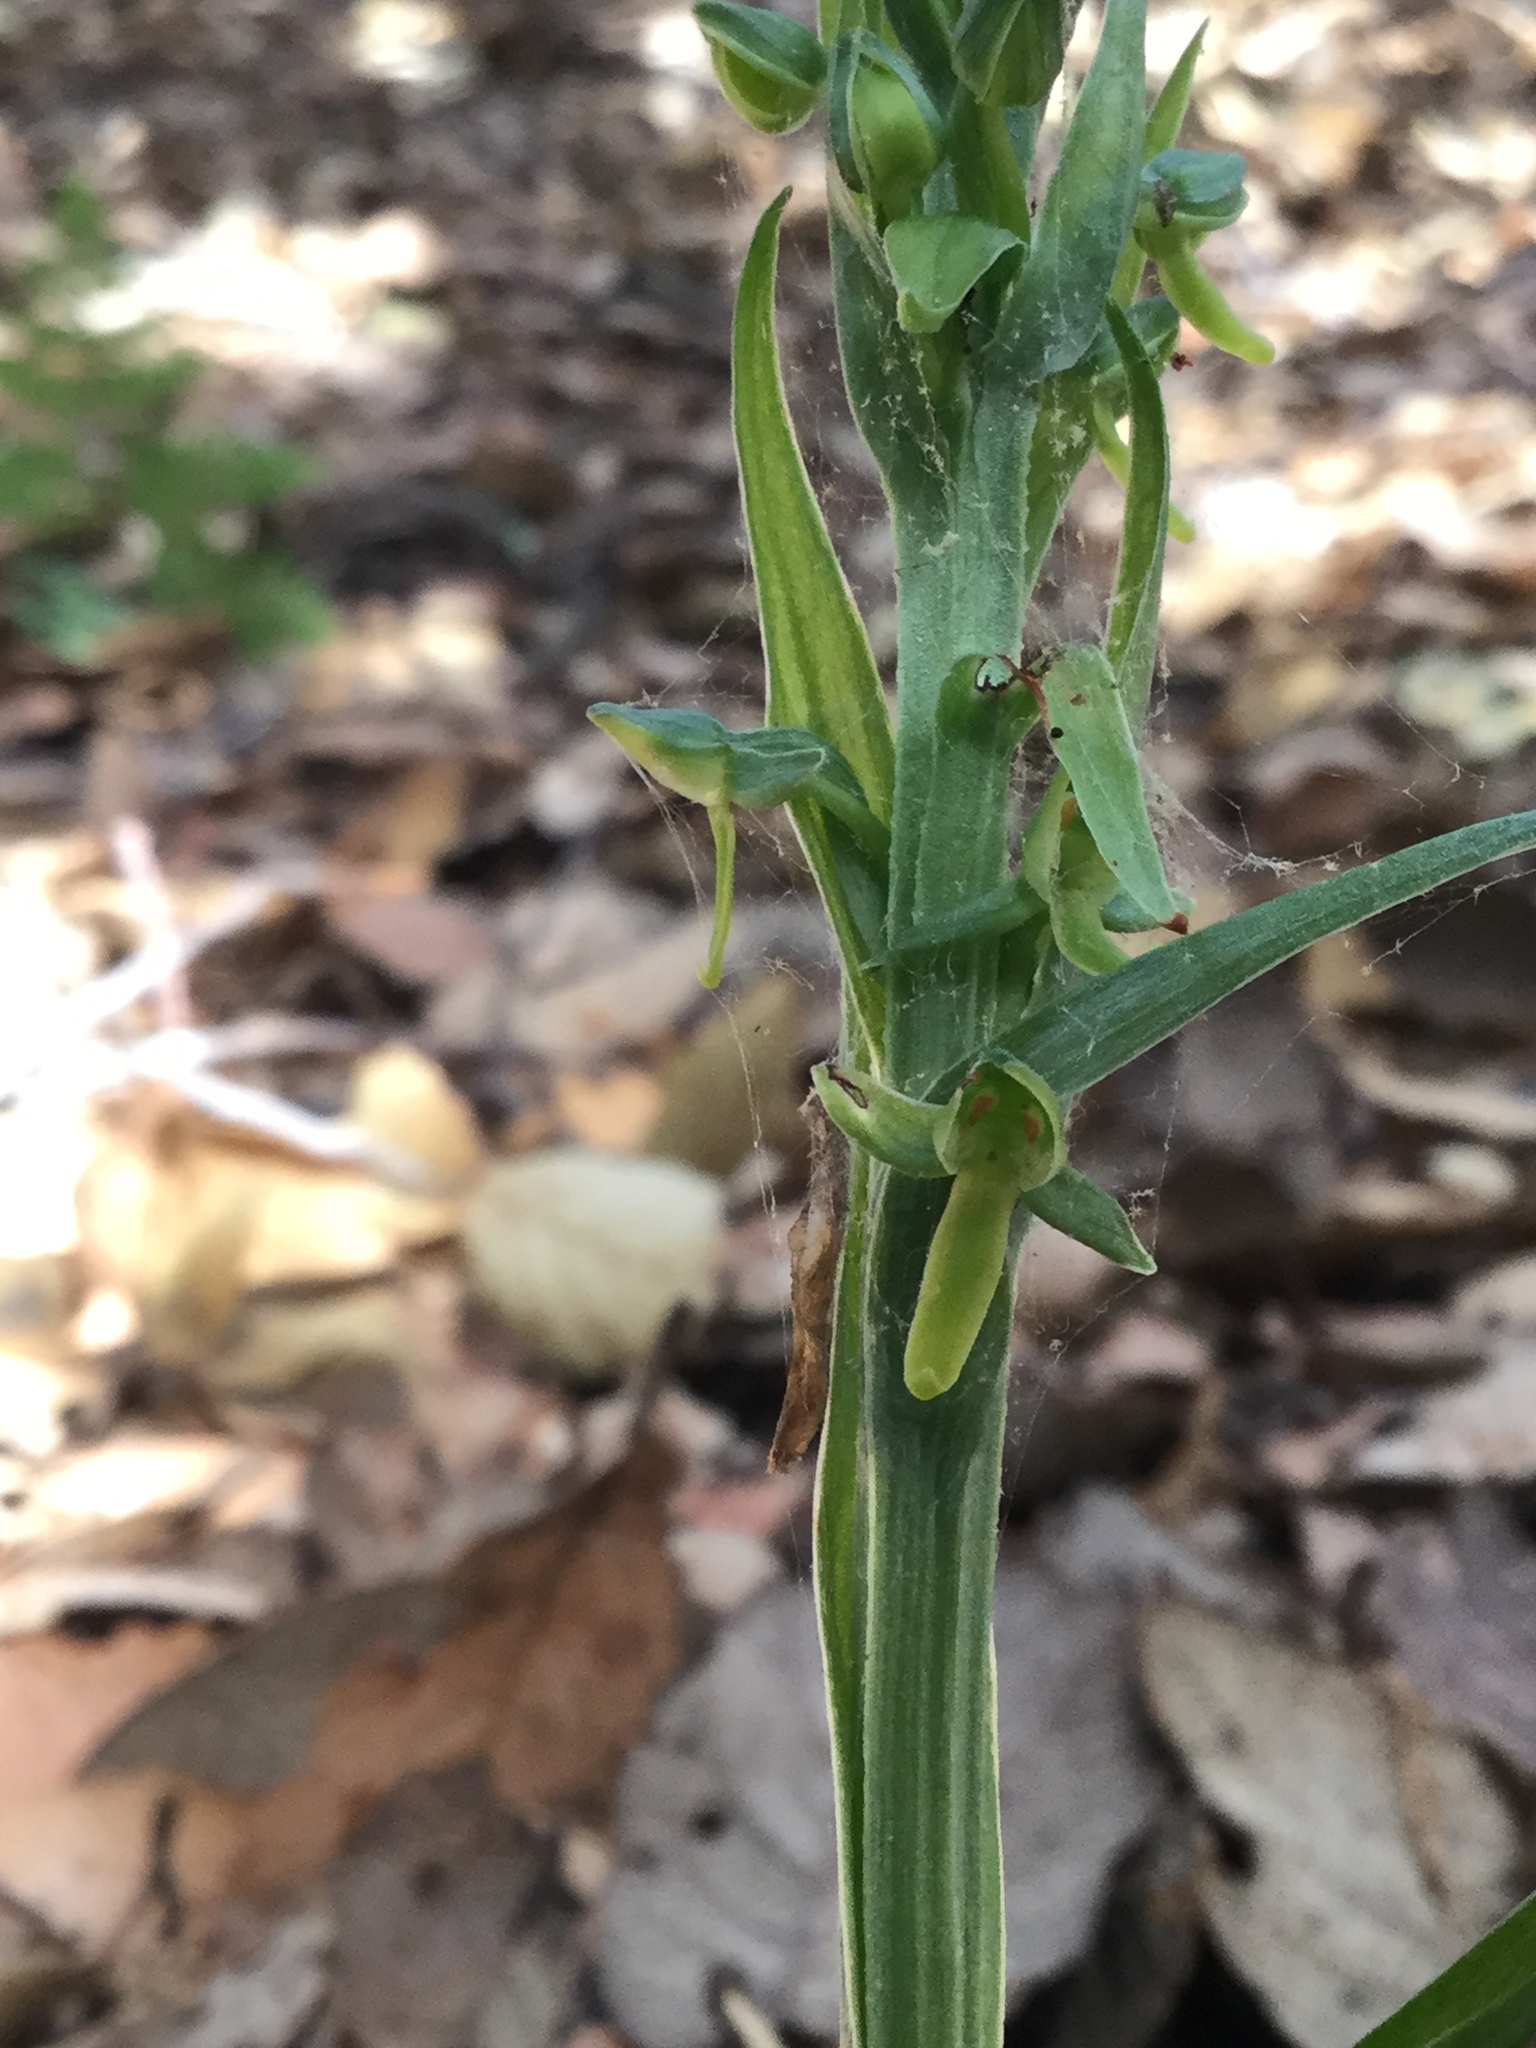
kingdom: Plantae
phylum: Tracheophyta
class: Liliopsida
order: Asparagales
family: Orchidaceae
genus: Platanthera
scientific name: Platanthera brevifolia
